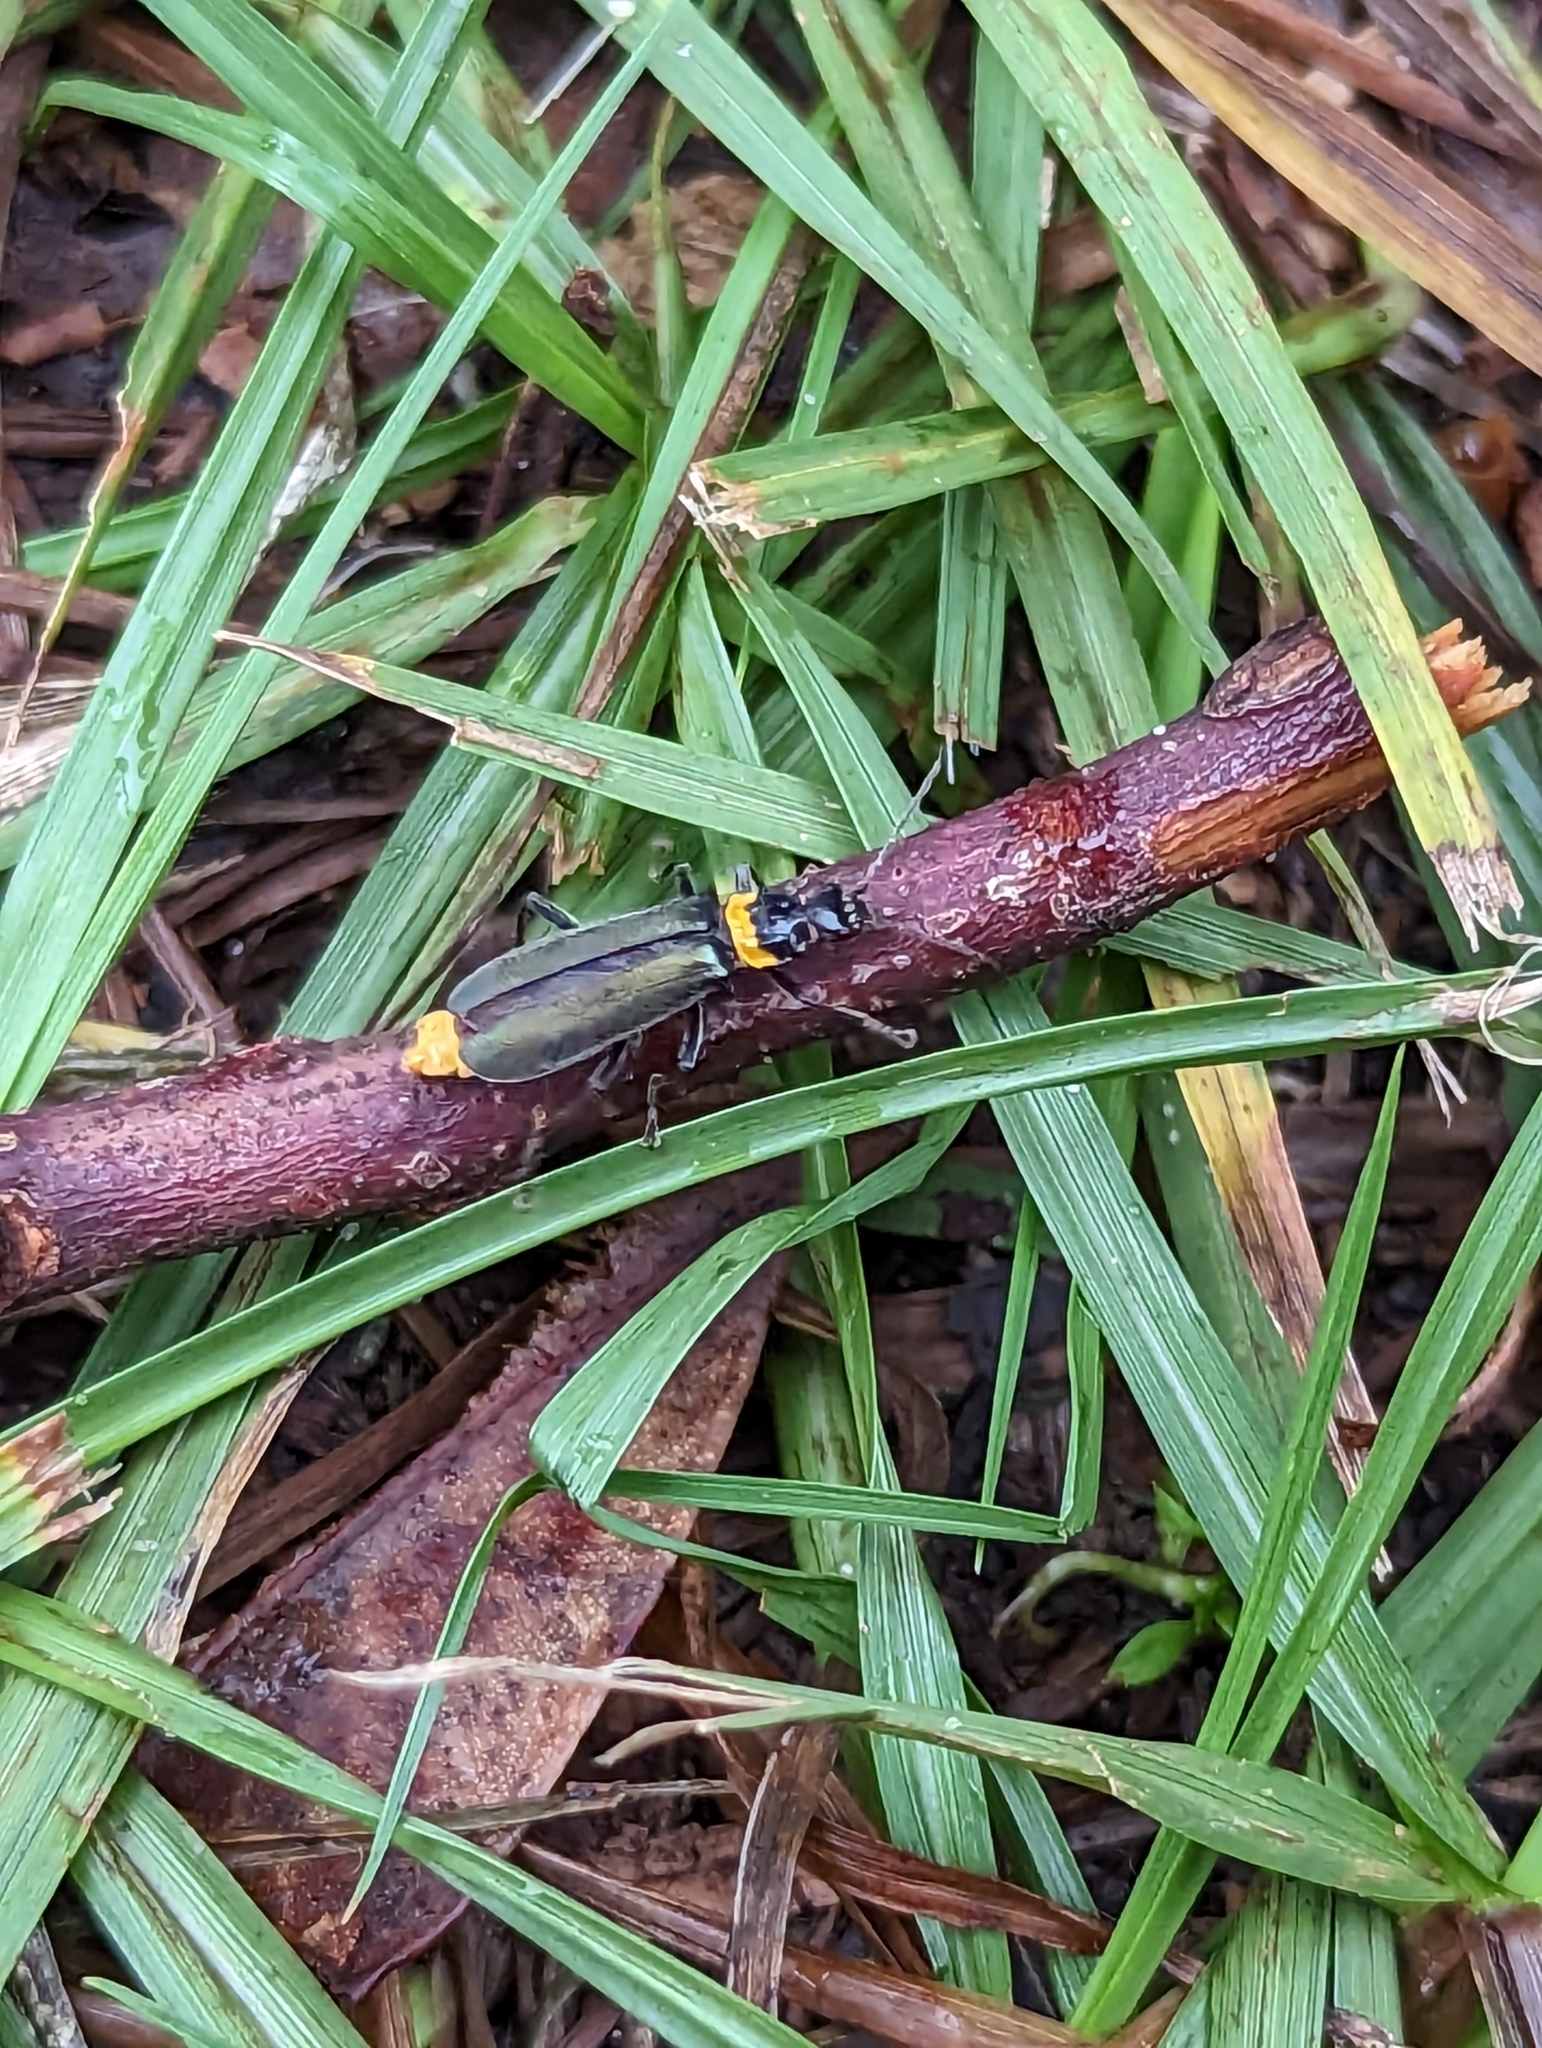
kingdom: Animalia
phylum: Arthropoda
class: Insecta
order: Coleoptera
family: Cantharidae
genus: Chauliognathus
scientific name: Chauliognathus
